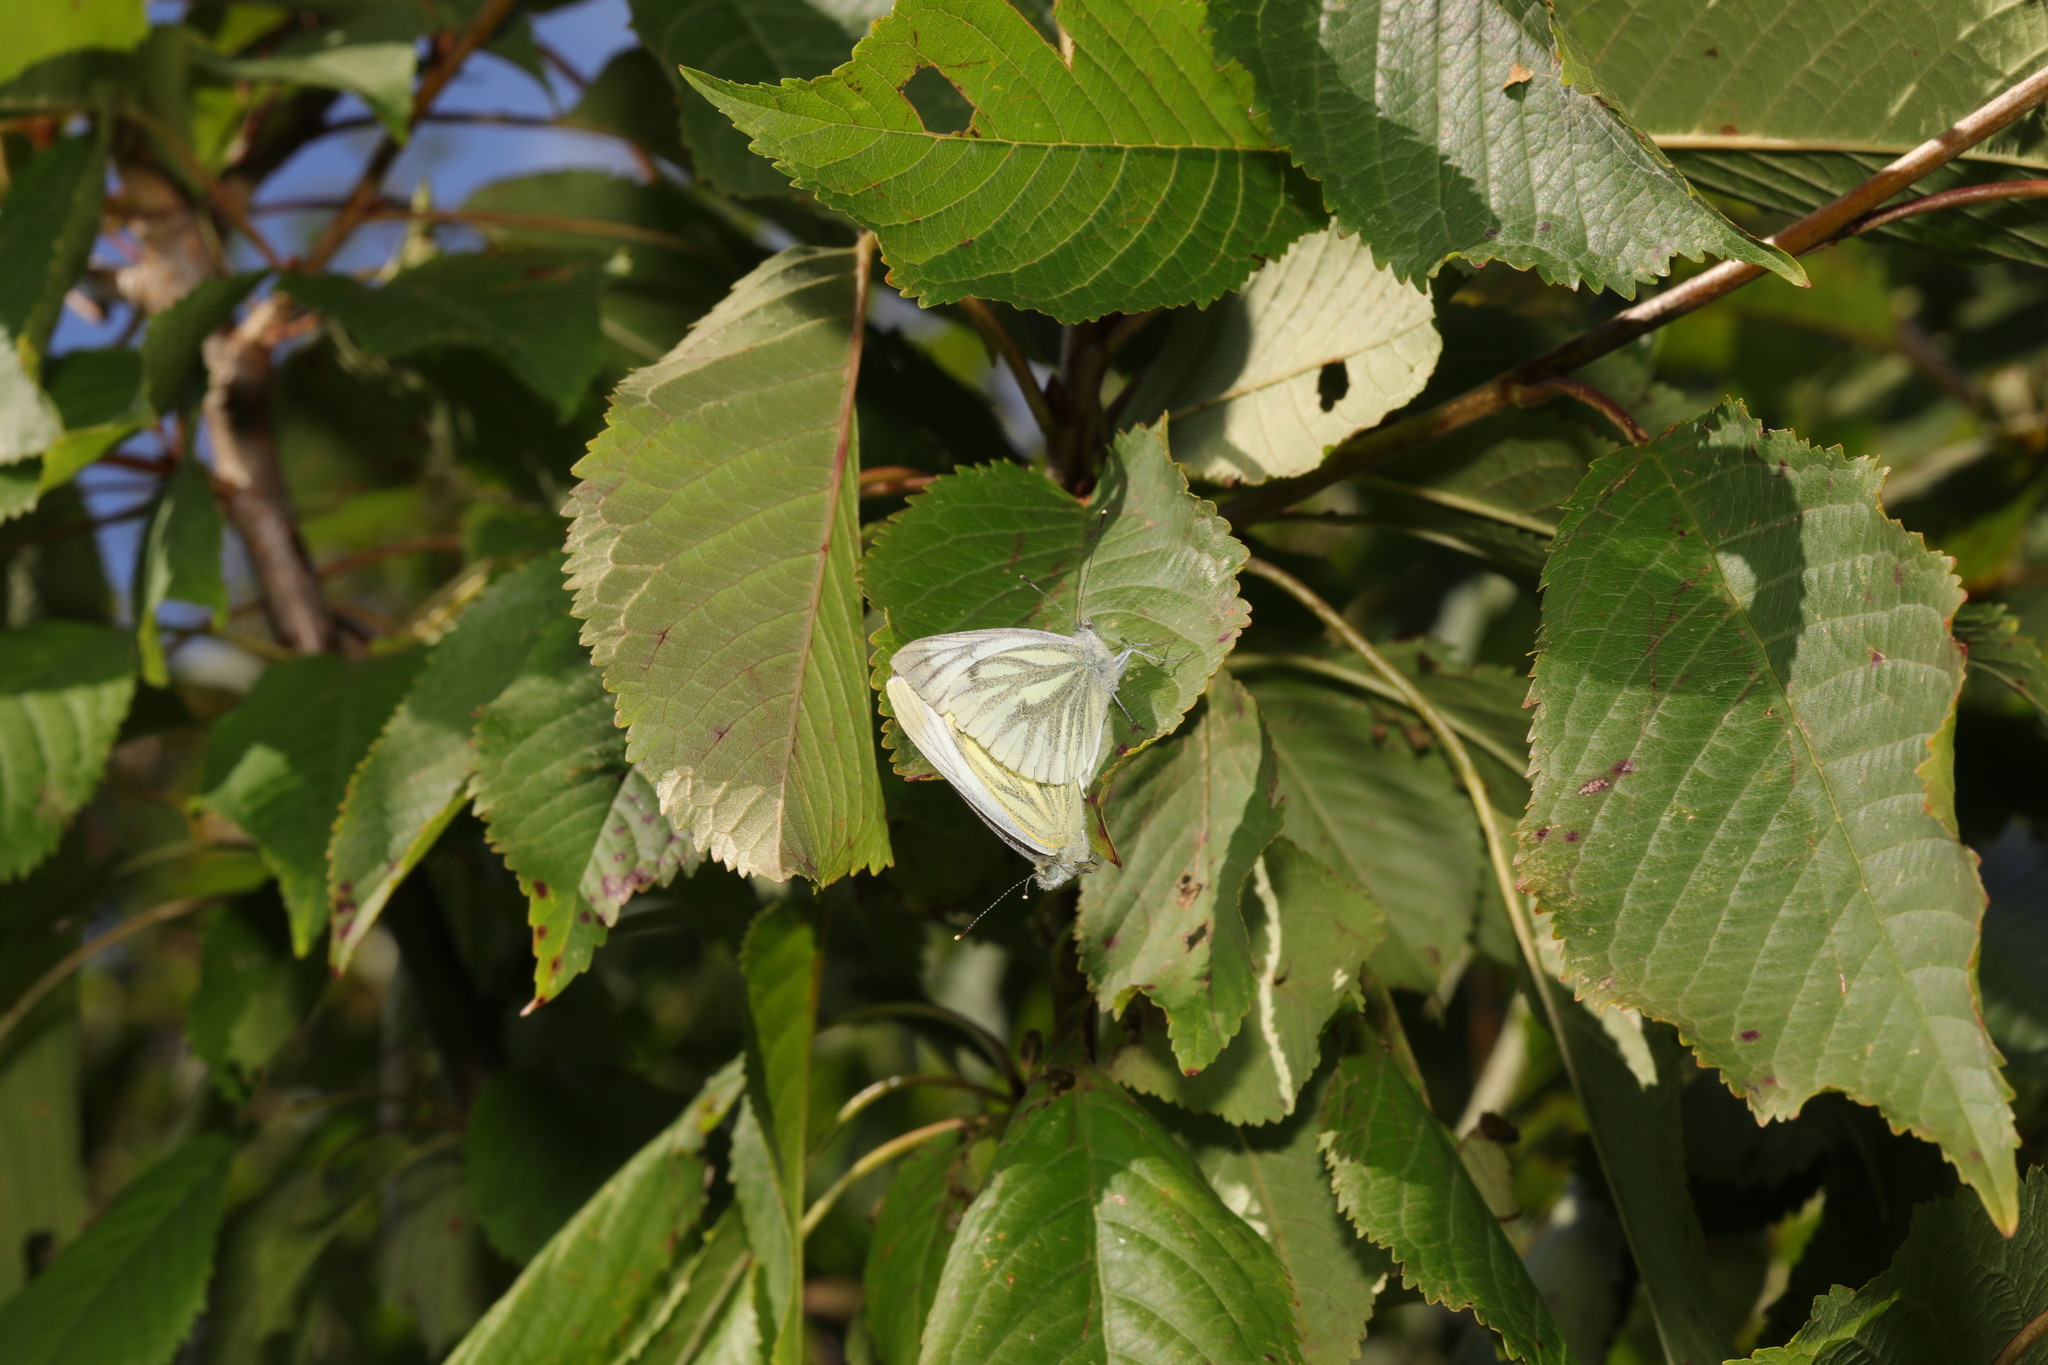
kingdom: Animalia
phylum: Arthropoda
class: Insecta
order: Lepidoptera
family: Pieridae
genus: Pieris
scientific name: Pieris napi
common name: Green-veined white
